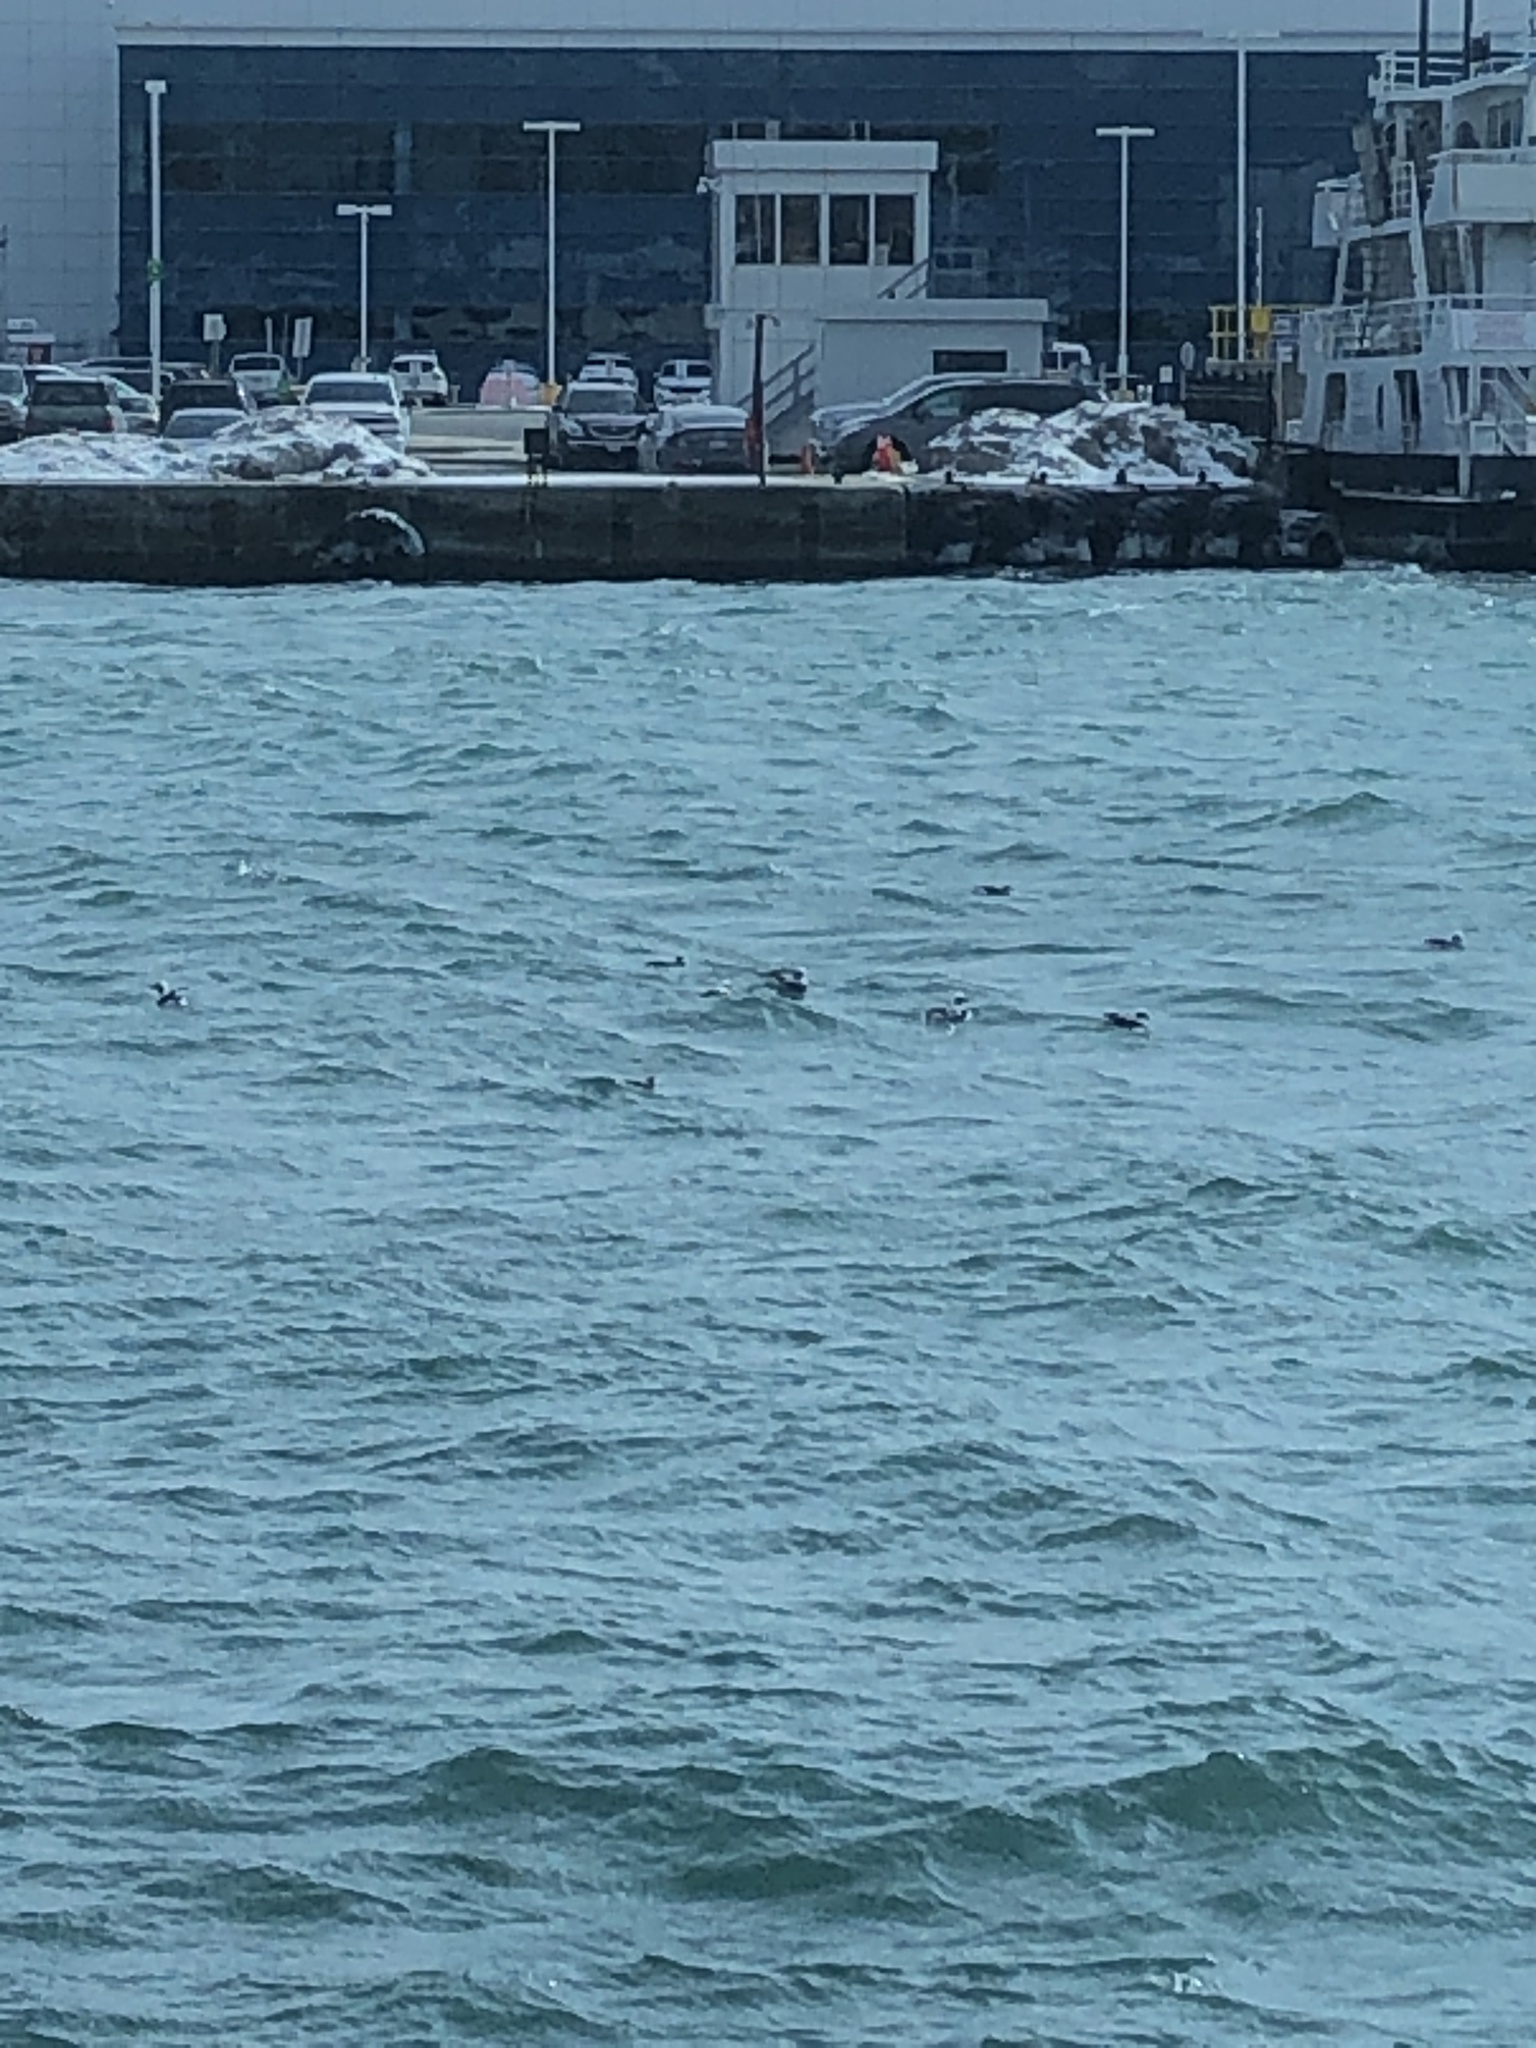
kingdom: Animalia
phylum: Chordata
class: Aves
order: Anseriformes
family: Anatidae
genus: Clangula
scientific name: Clangula hyemalis
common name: Long-tailed duck
